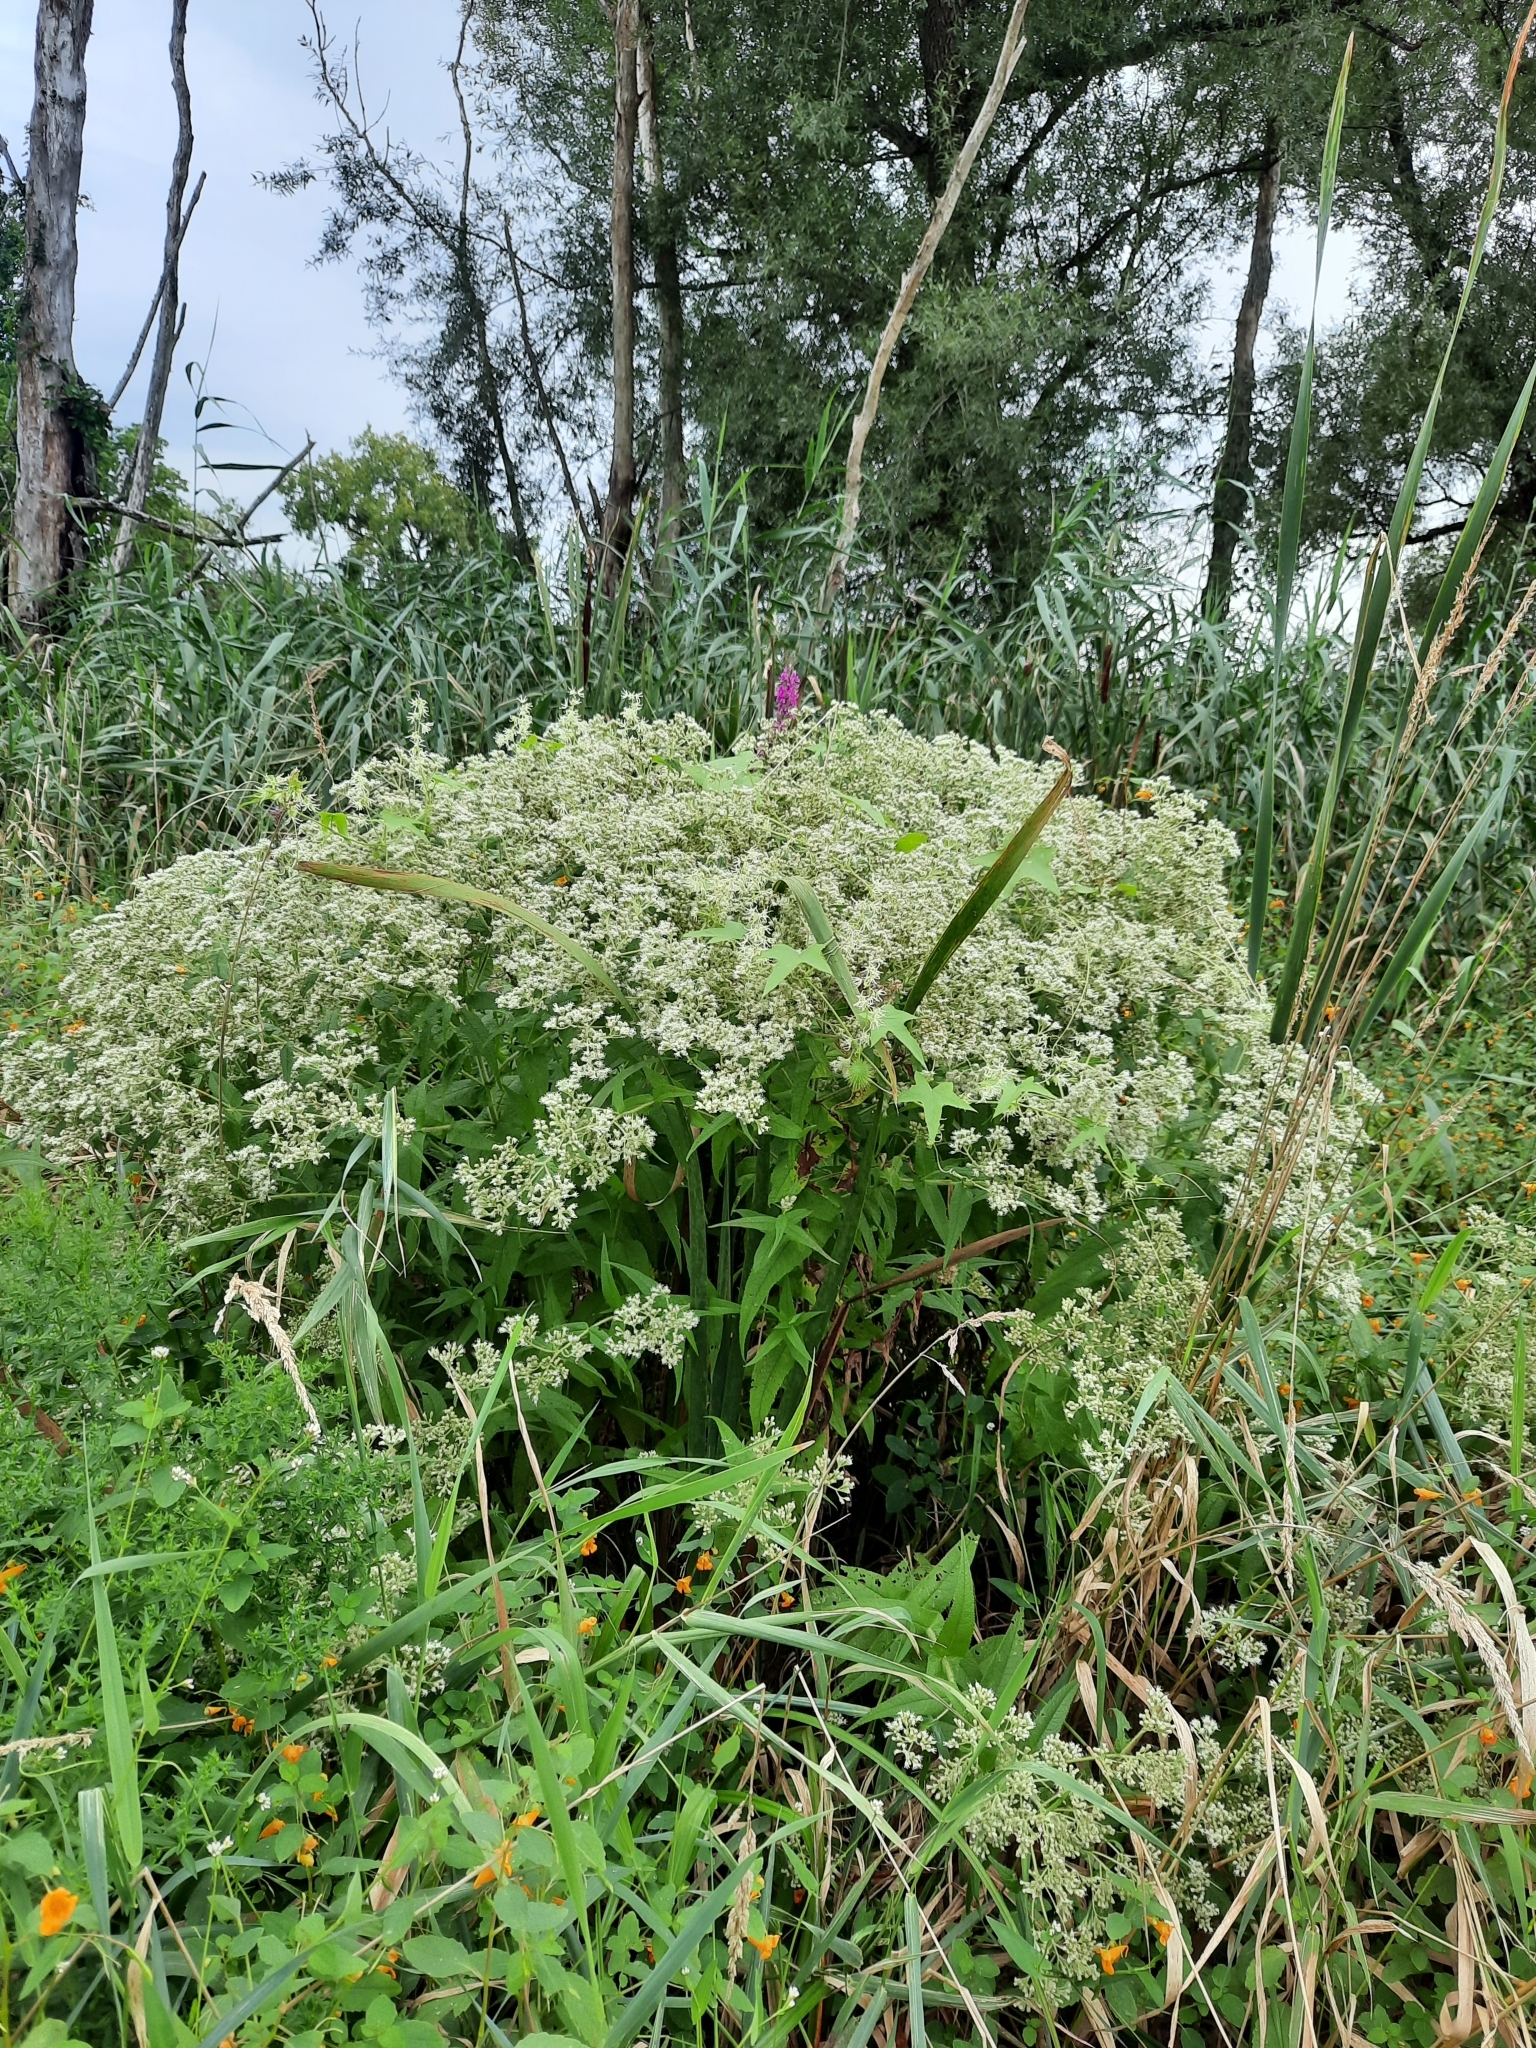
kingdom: Plantae
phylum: Tracheophyta
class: Magnoliopsida
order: Asterales
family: Asteraceae
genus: Eupatorium
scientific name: Eupatorium perfoliatum
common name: Boneset
